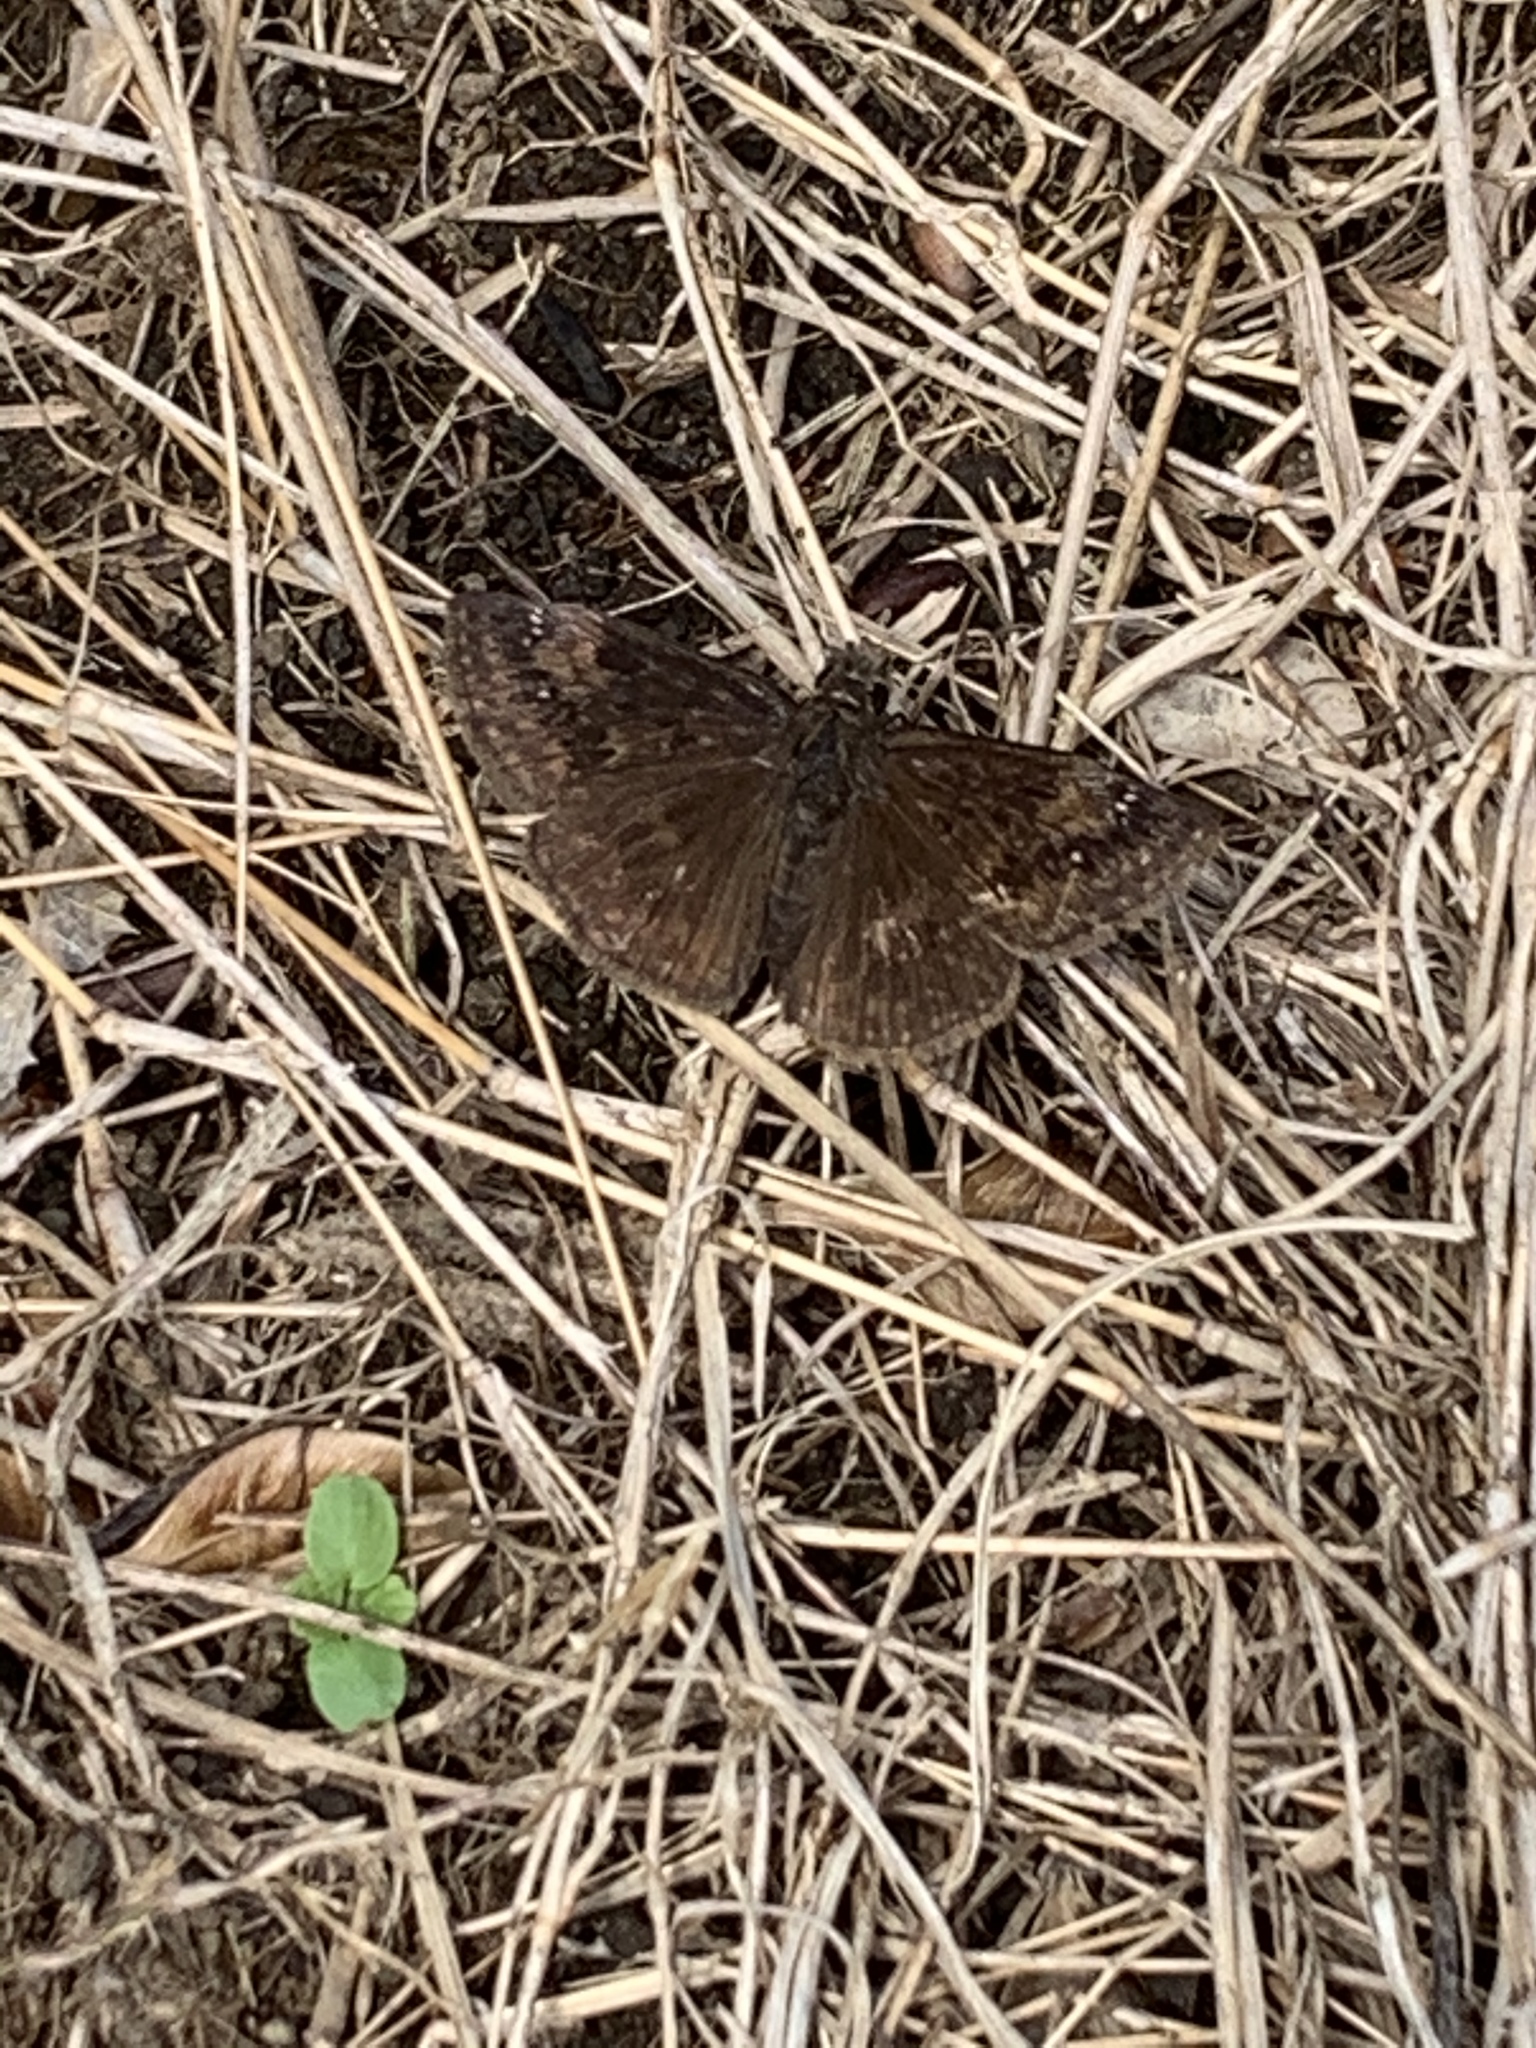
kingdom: Animalia
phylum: Arthropoda
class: Insecta
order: Lepidoptera
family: Hesperiidae
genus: Erynnis
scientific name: Erynnis baptisiae
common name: Wild indigo duskywing
